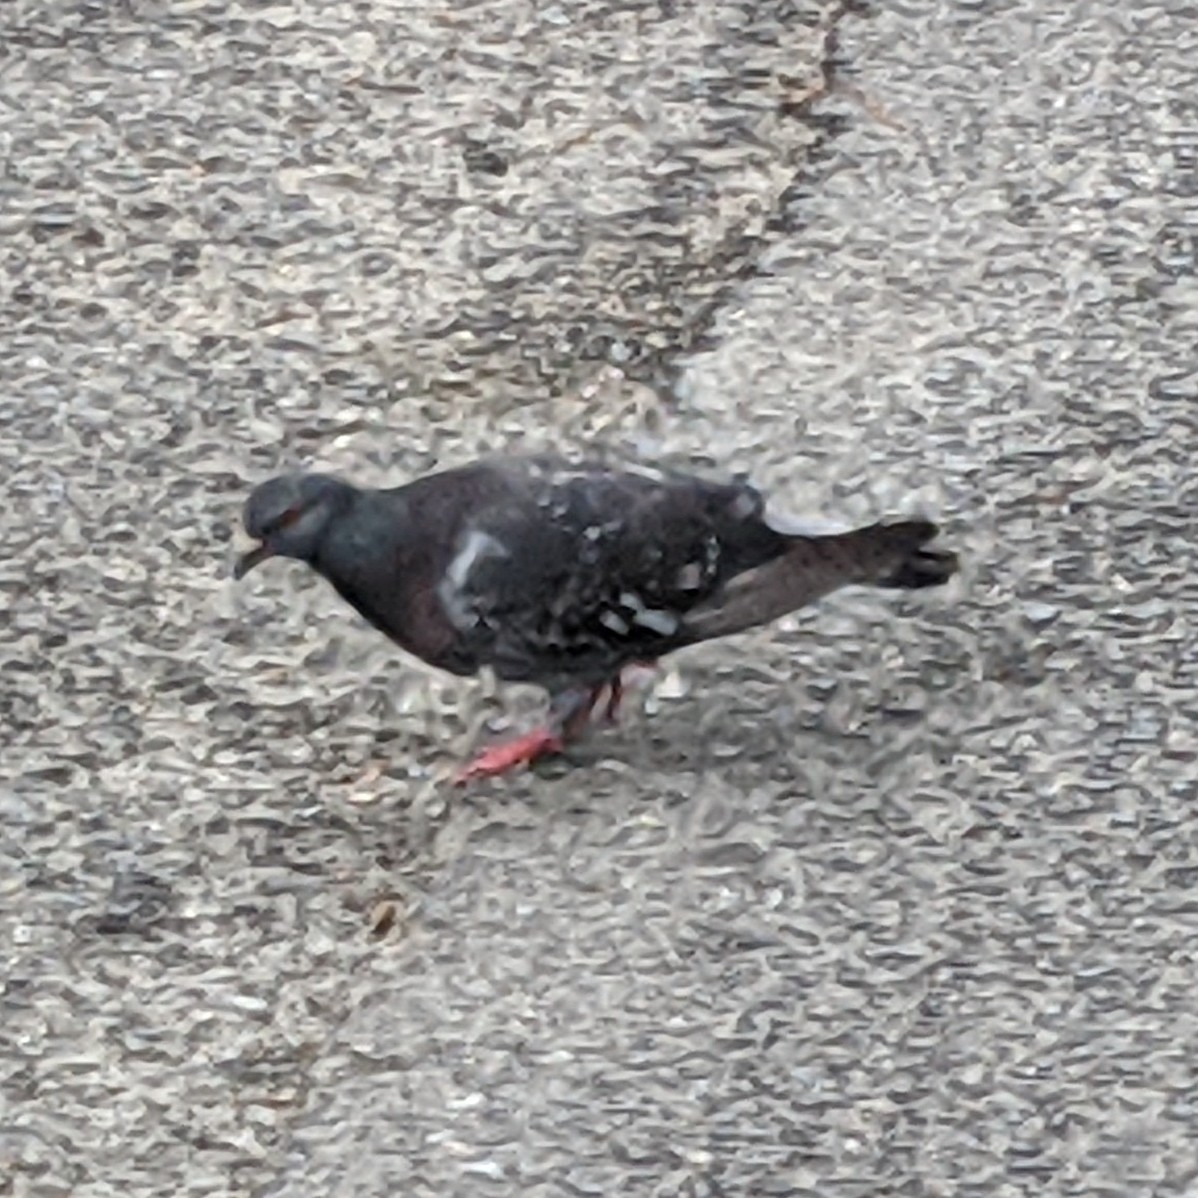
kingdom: Animalia
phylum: Chordata
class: Aves
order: Columbiformes
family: Columbidae
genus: Columba
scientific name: Columba livia
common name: Rock pigeon
